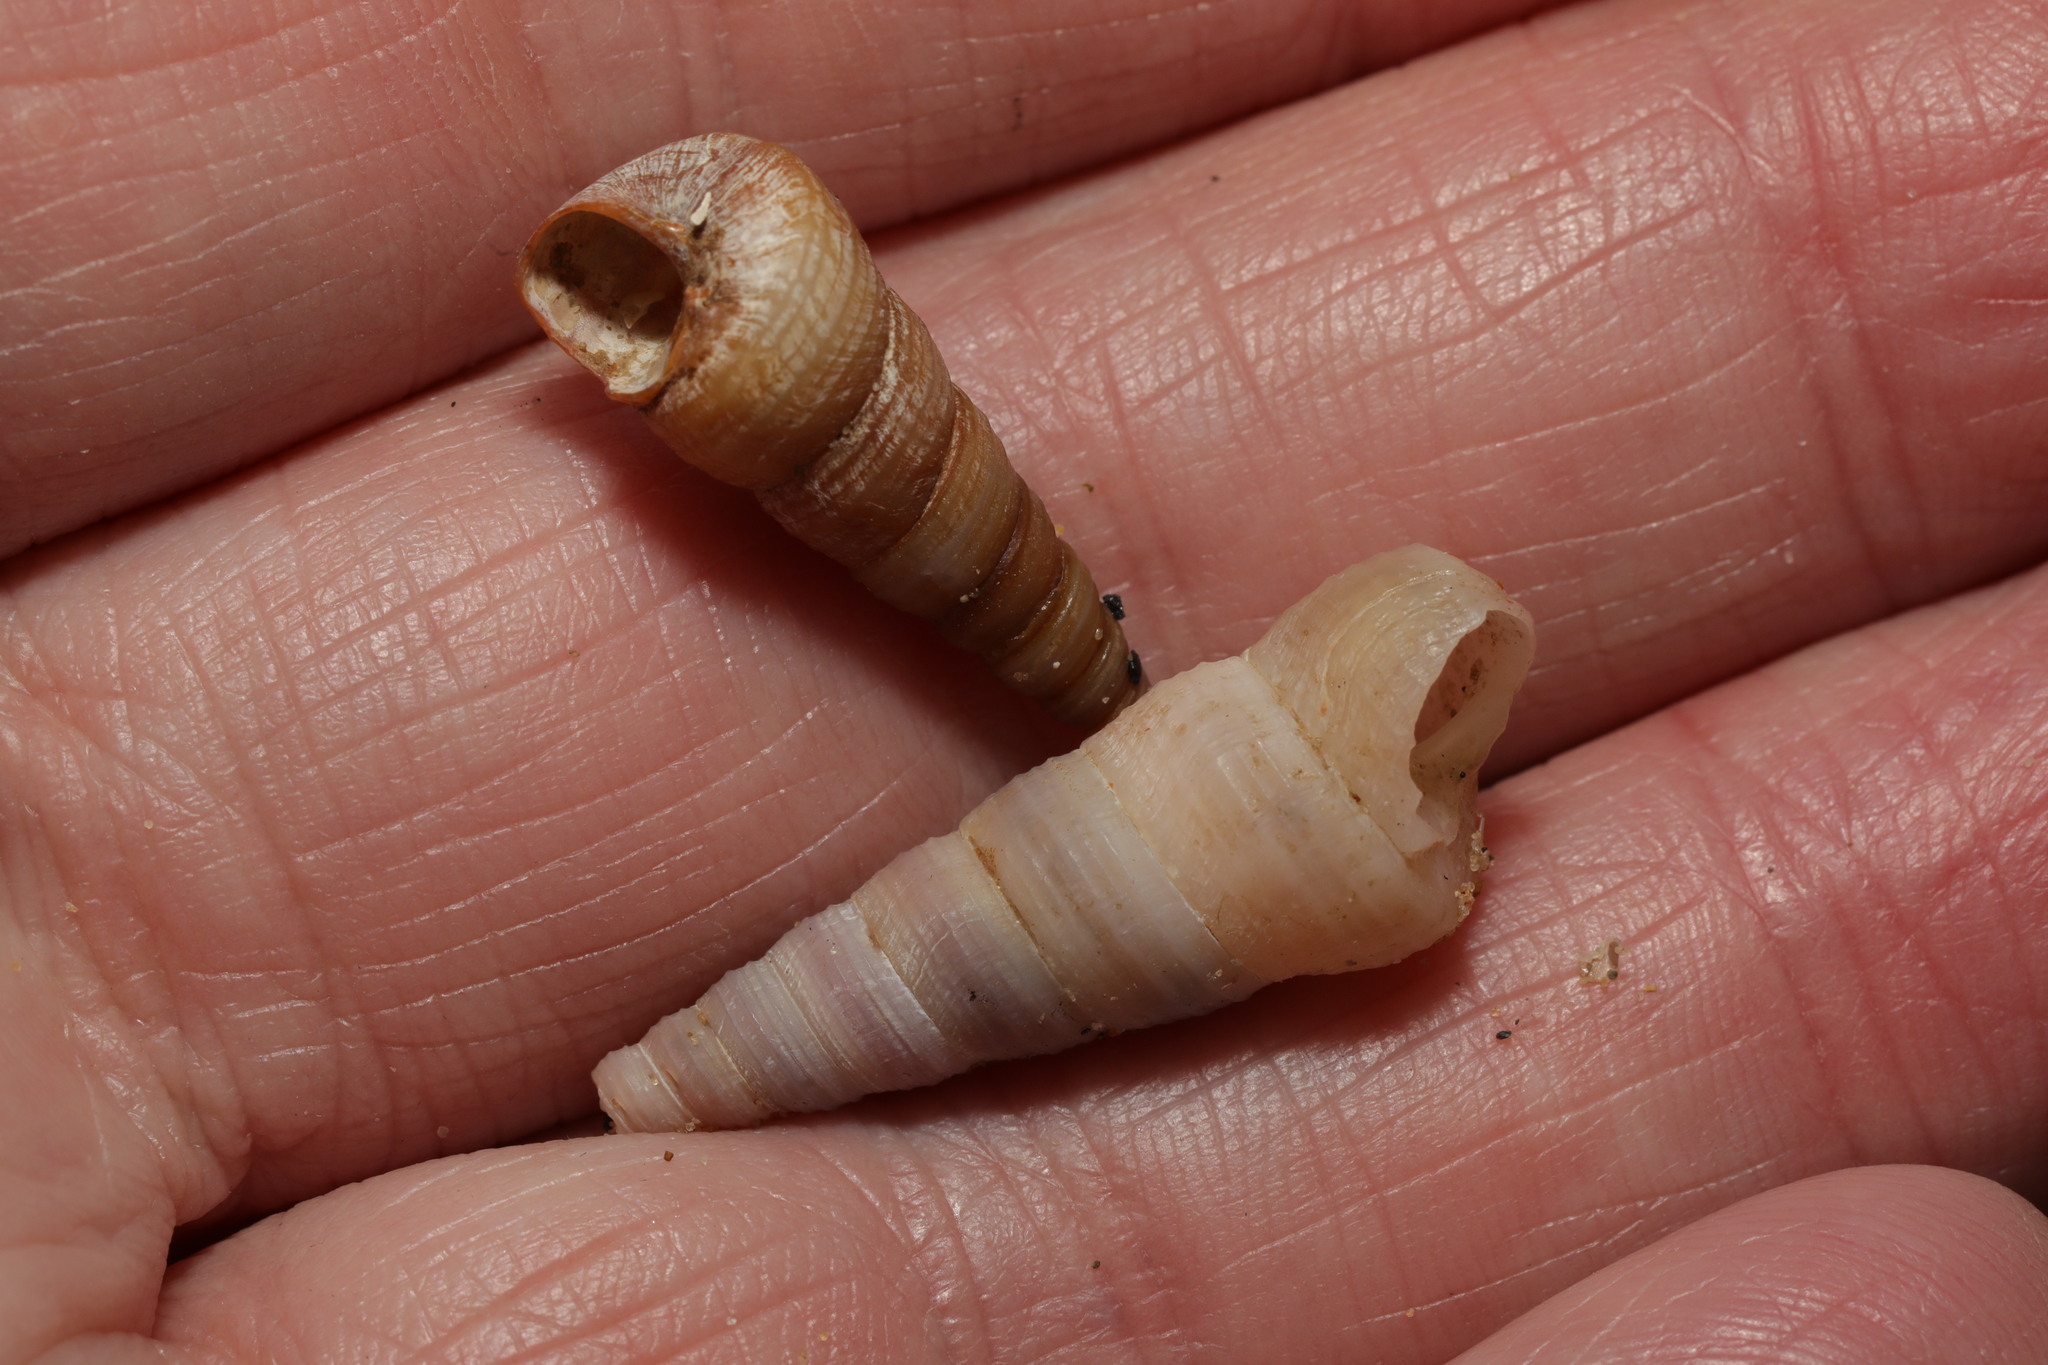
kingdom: Animalia
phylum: Mollusca
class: Gastropoda
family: Turritellidae
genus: Turritellinella
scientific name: Turritellinella tricarinata
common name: Auger shell
